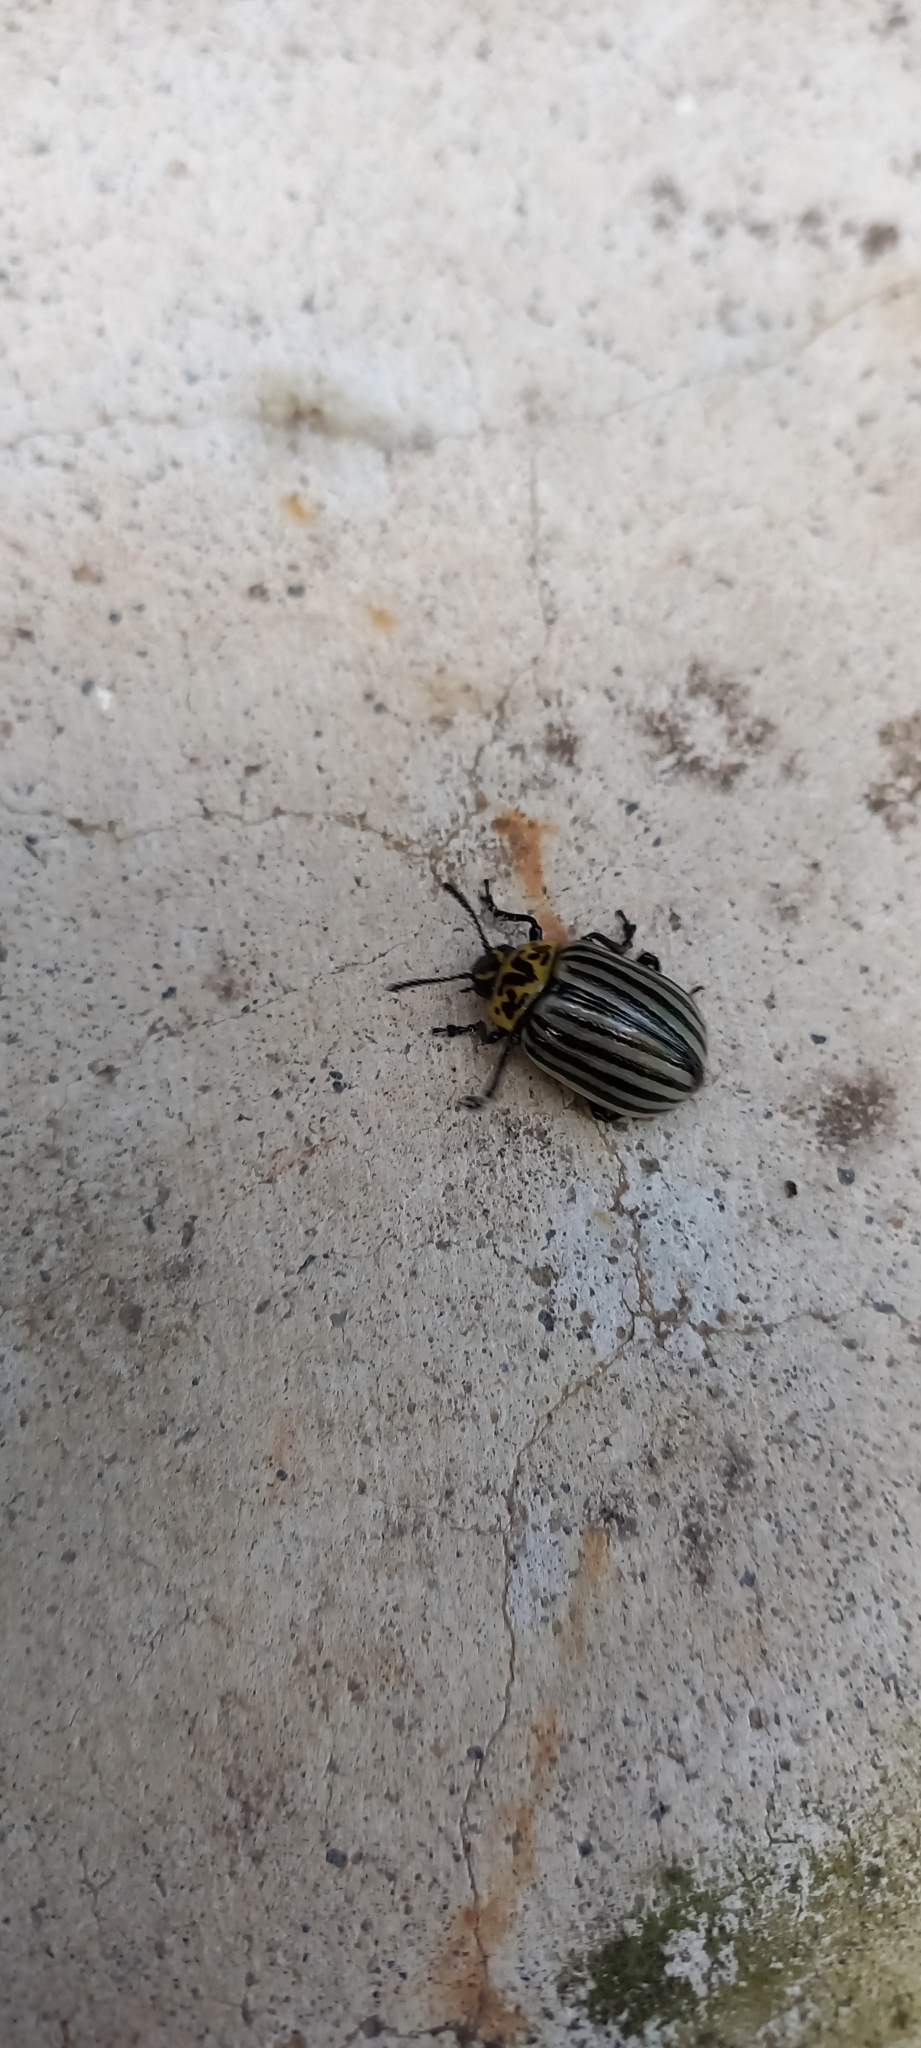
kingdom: Animalia
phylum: Arthropoda
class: Insecta
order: Coleoptera
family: Chrysomelidae
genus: Leptinotarsa
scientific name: Leptinotarsa
